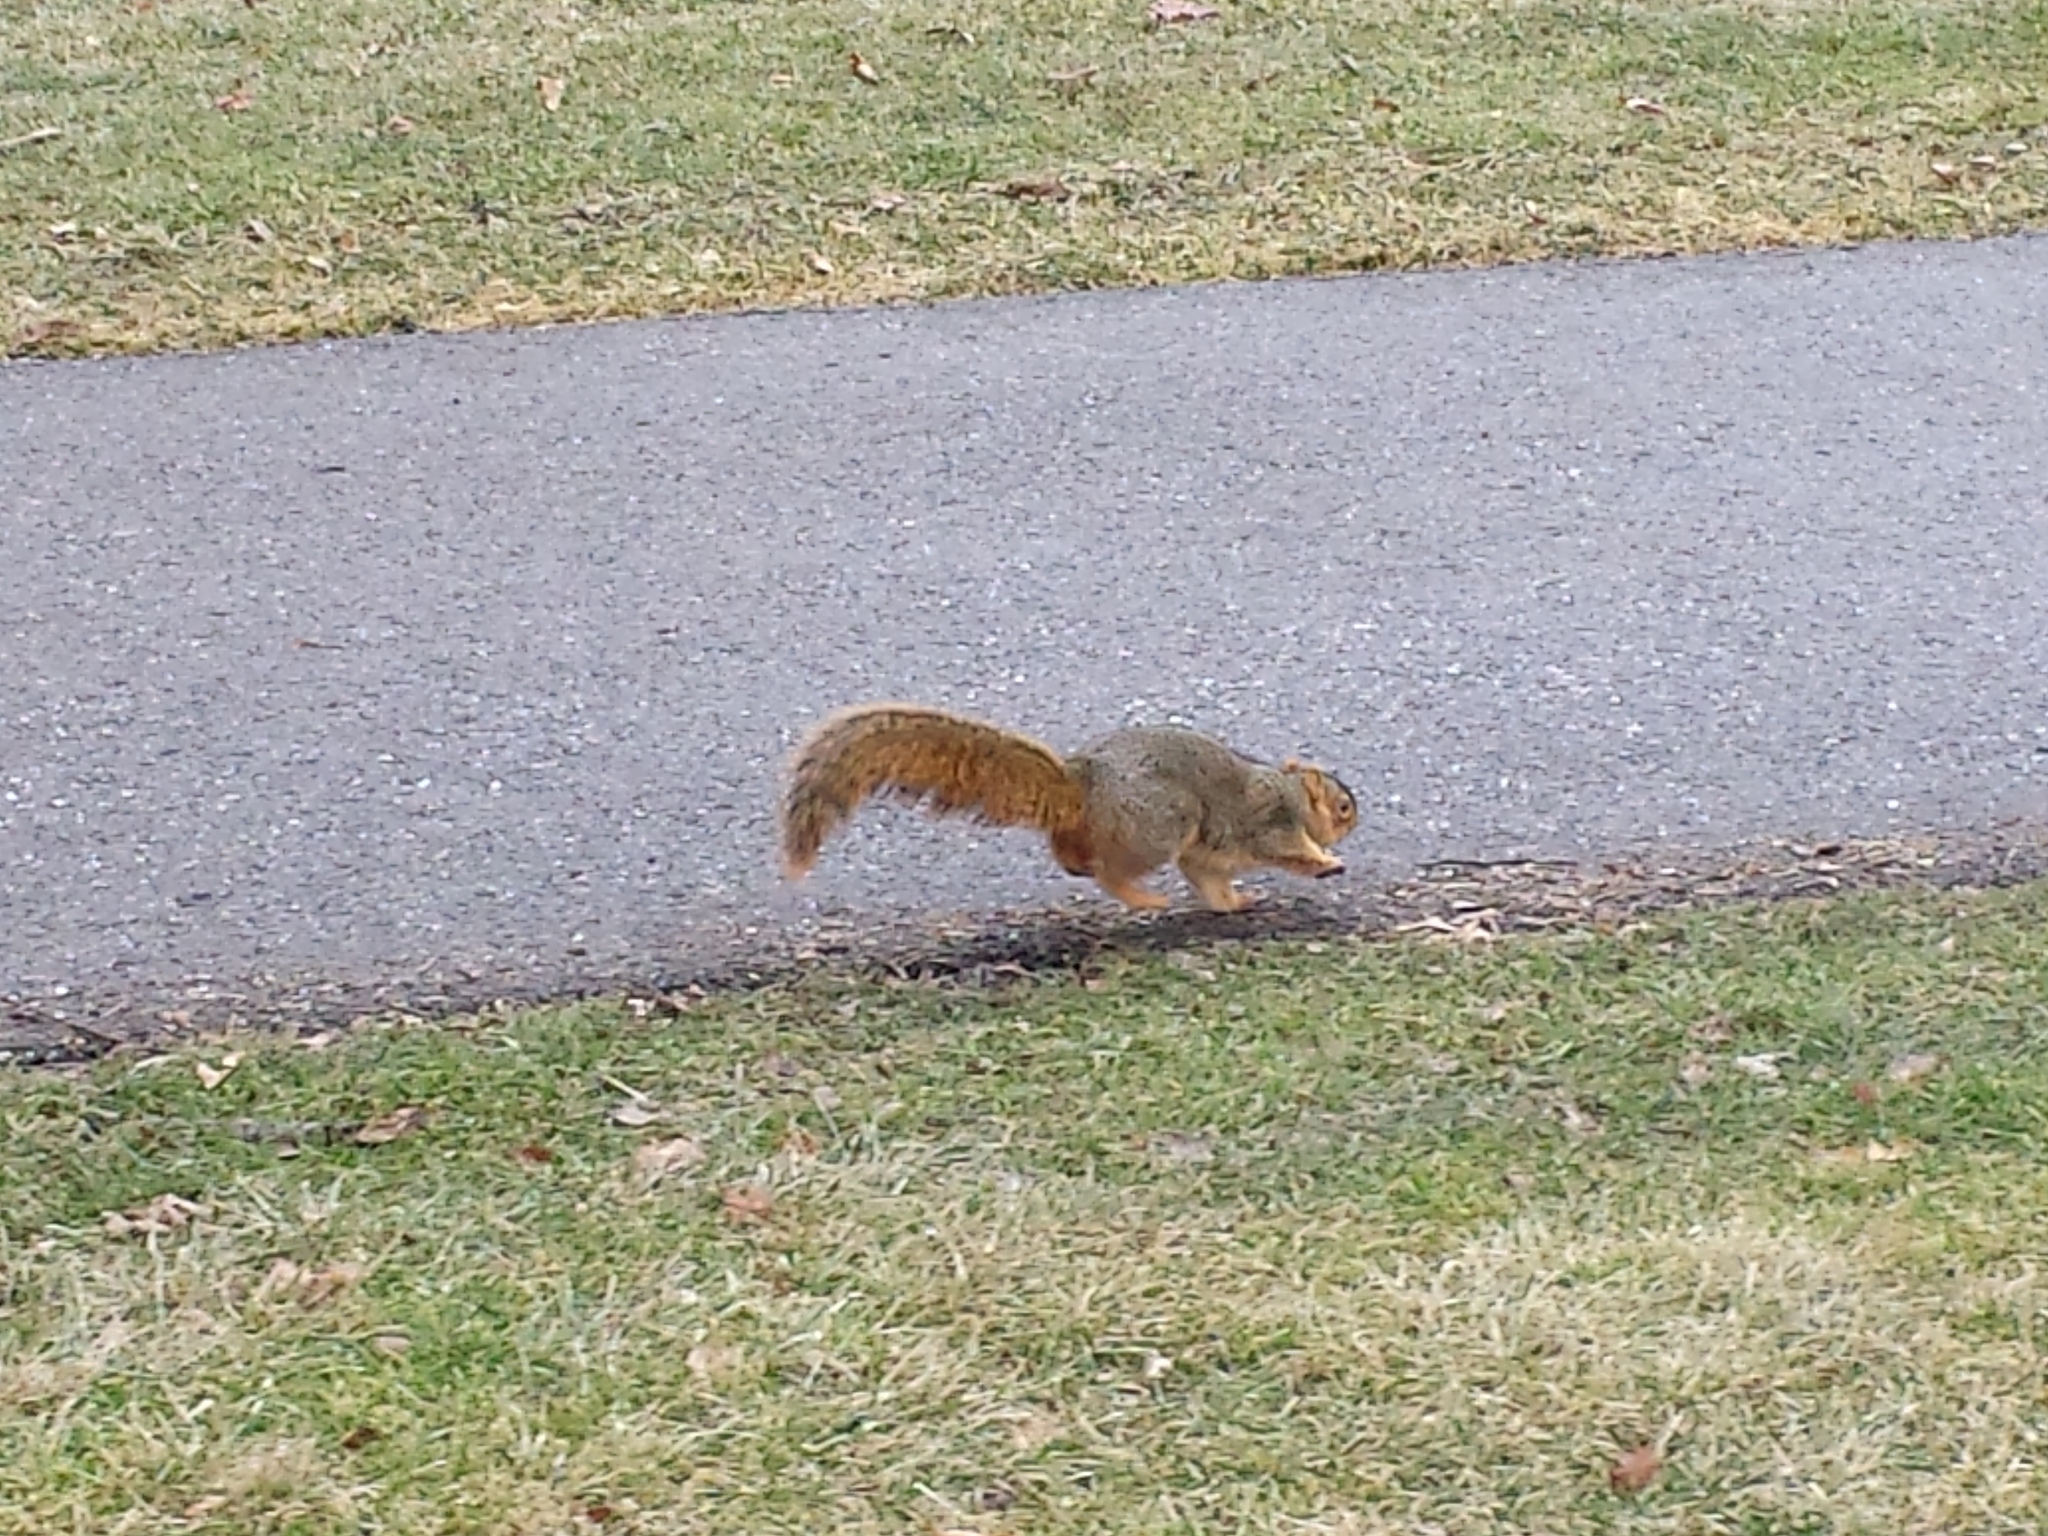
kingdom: Animalia
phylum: Chordata
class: Mammalia
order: Rodentia
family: Sciuridae
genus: Sciurus
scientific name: Sciurus niger
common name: Fox squirrel
